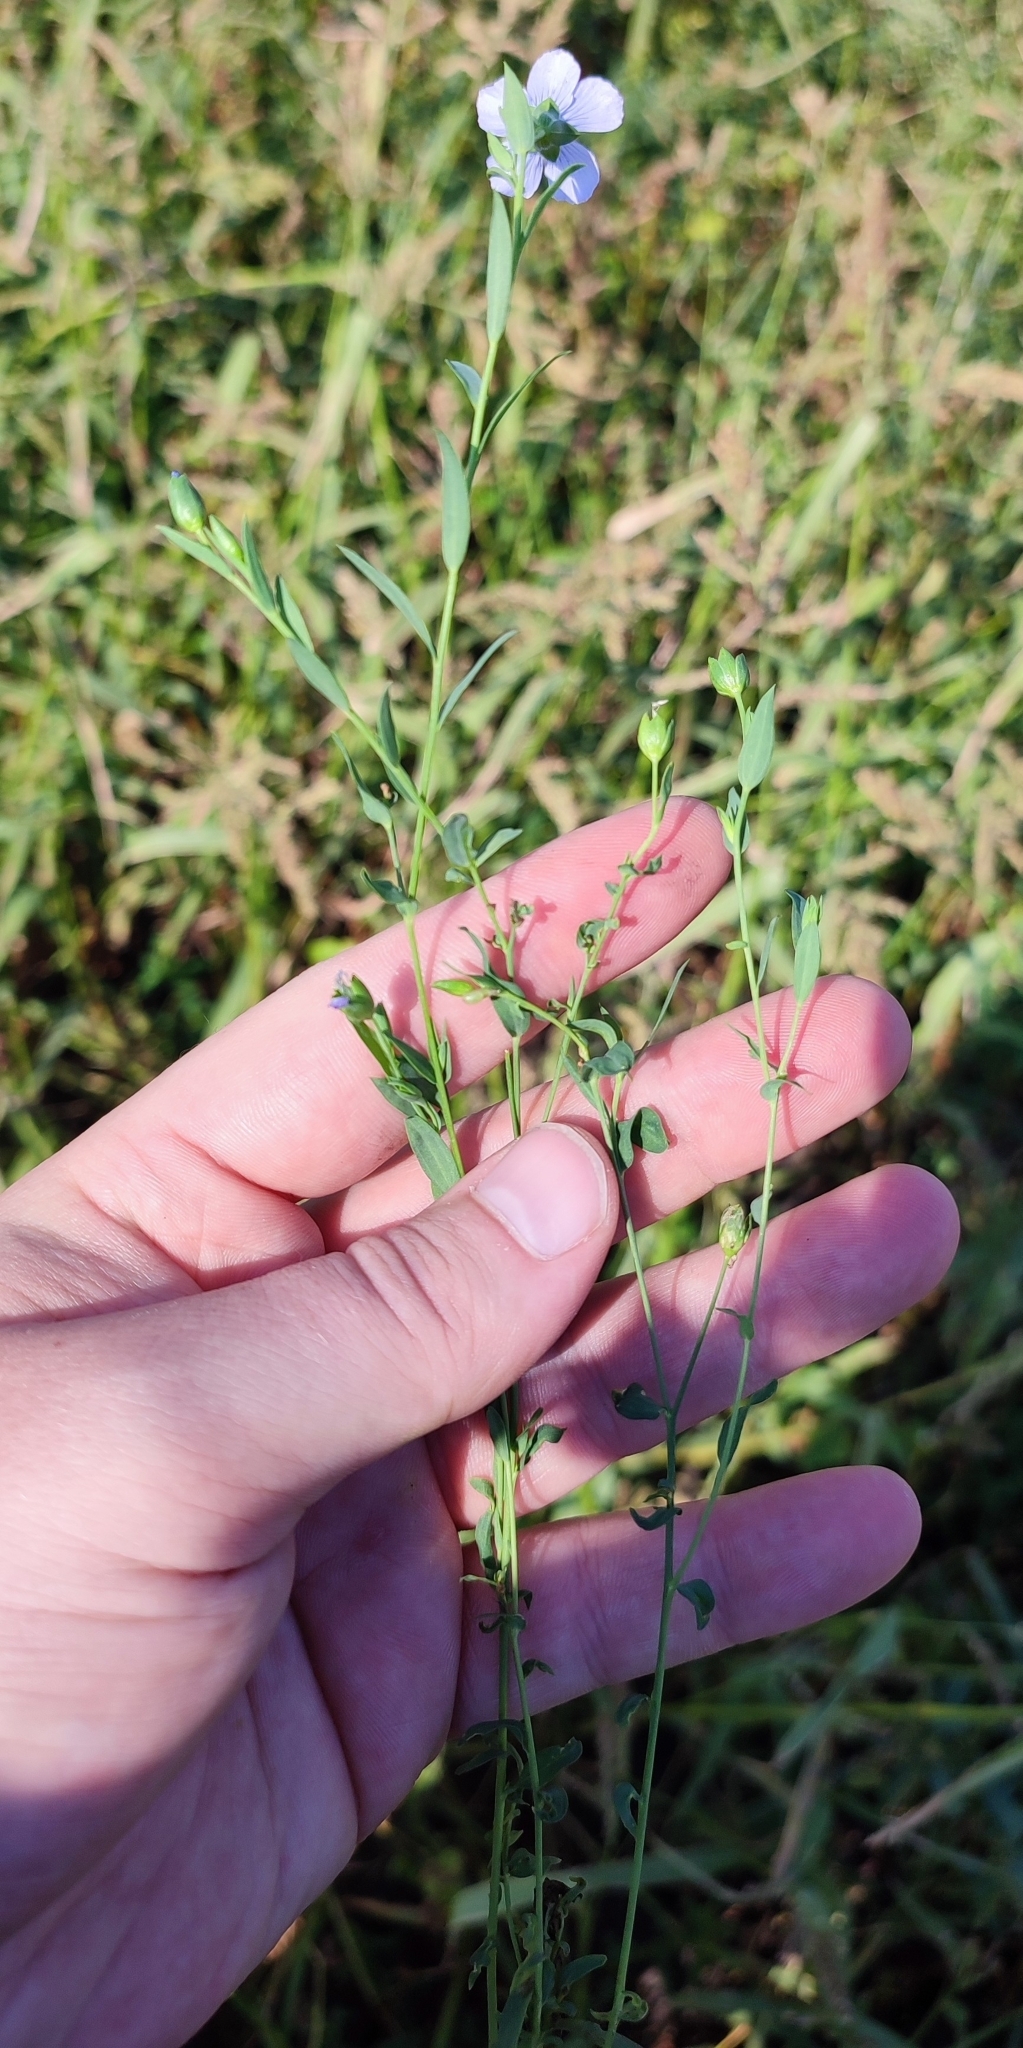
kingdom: Plantae
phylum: Tracheophyta
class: Magnoliopsida
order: Malpighiales
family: Linaceae
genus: Linum
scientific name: Linum usitatissimum
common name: Flax
